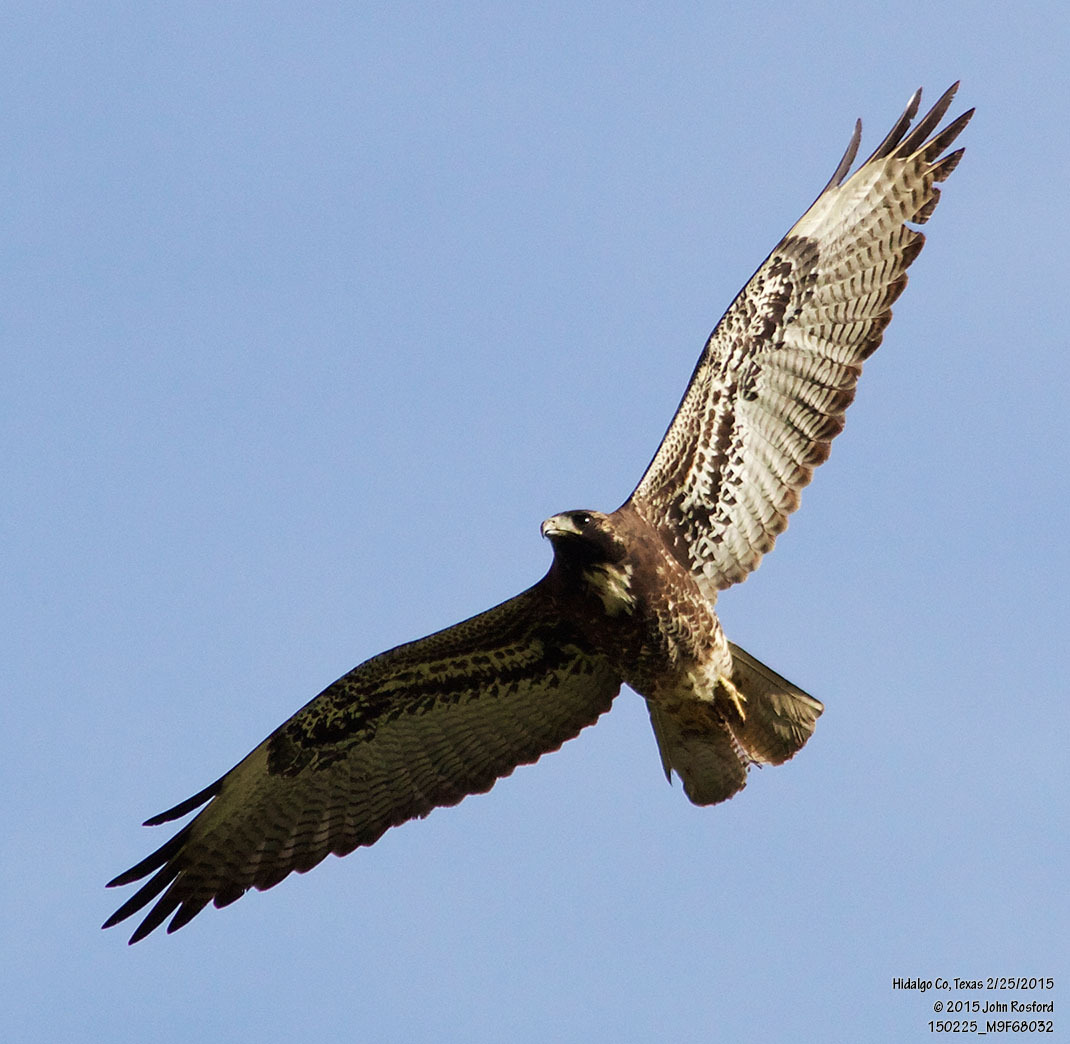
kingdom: Animalia
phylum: Chordata
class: Aves
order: Accipitriformes
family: Accipitridae
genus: Buteo
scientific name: Buteo albicaudatus
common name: White-tailed hawk
